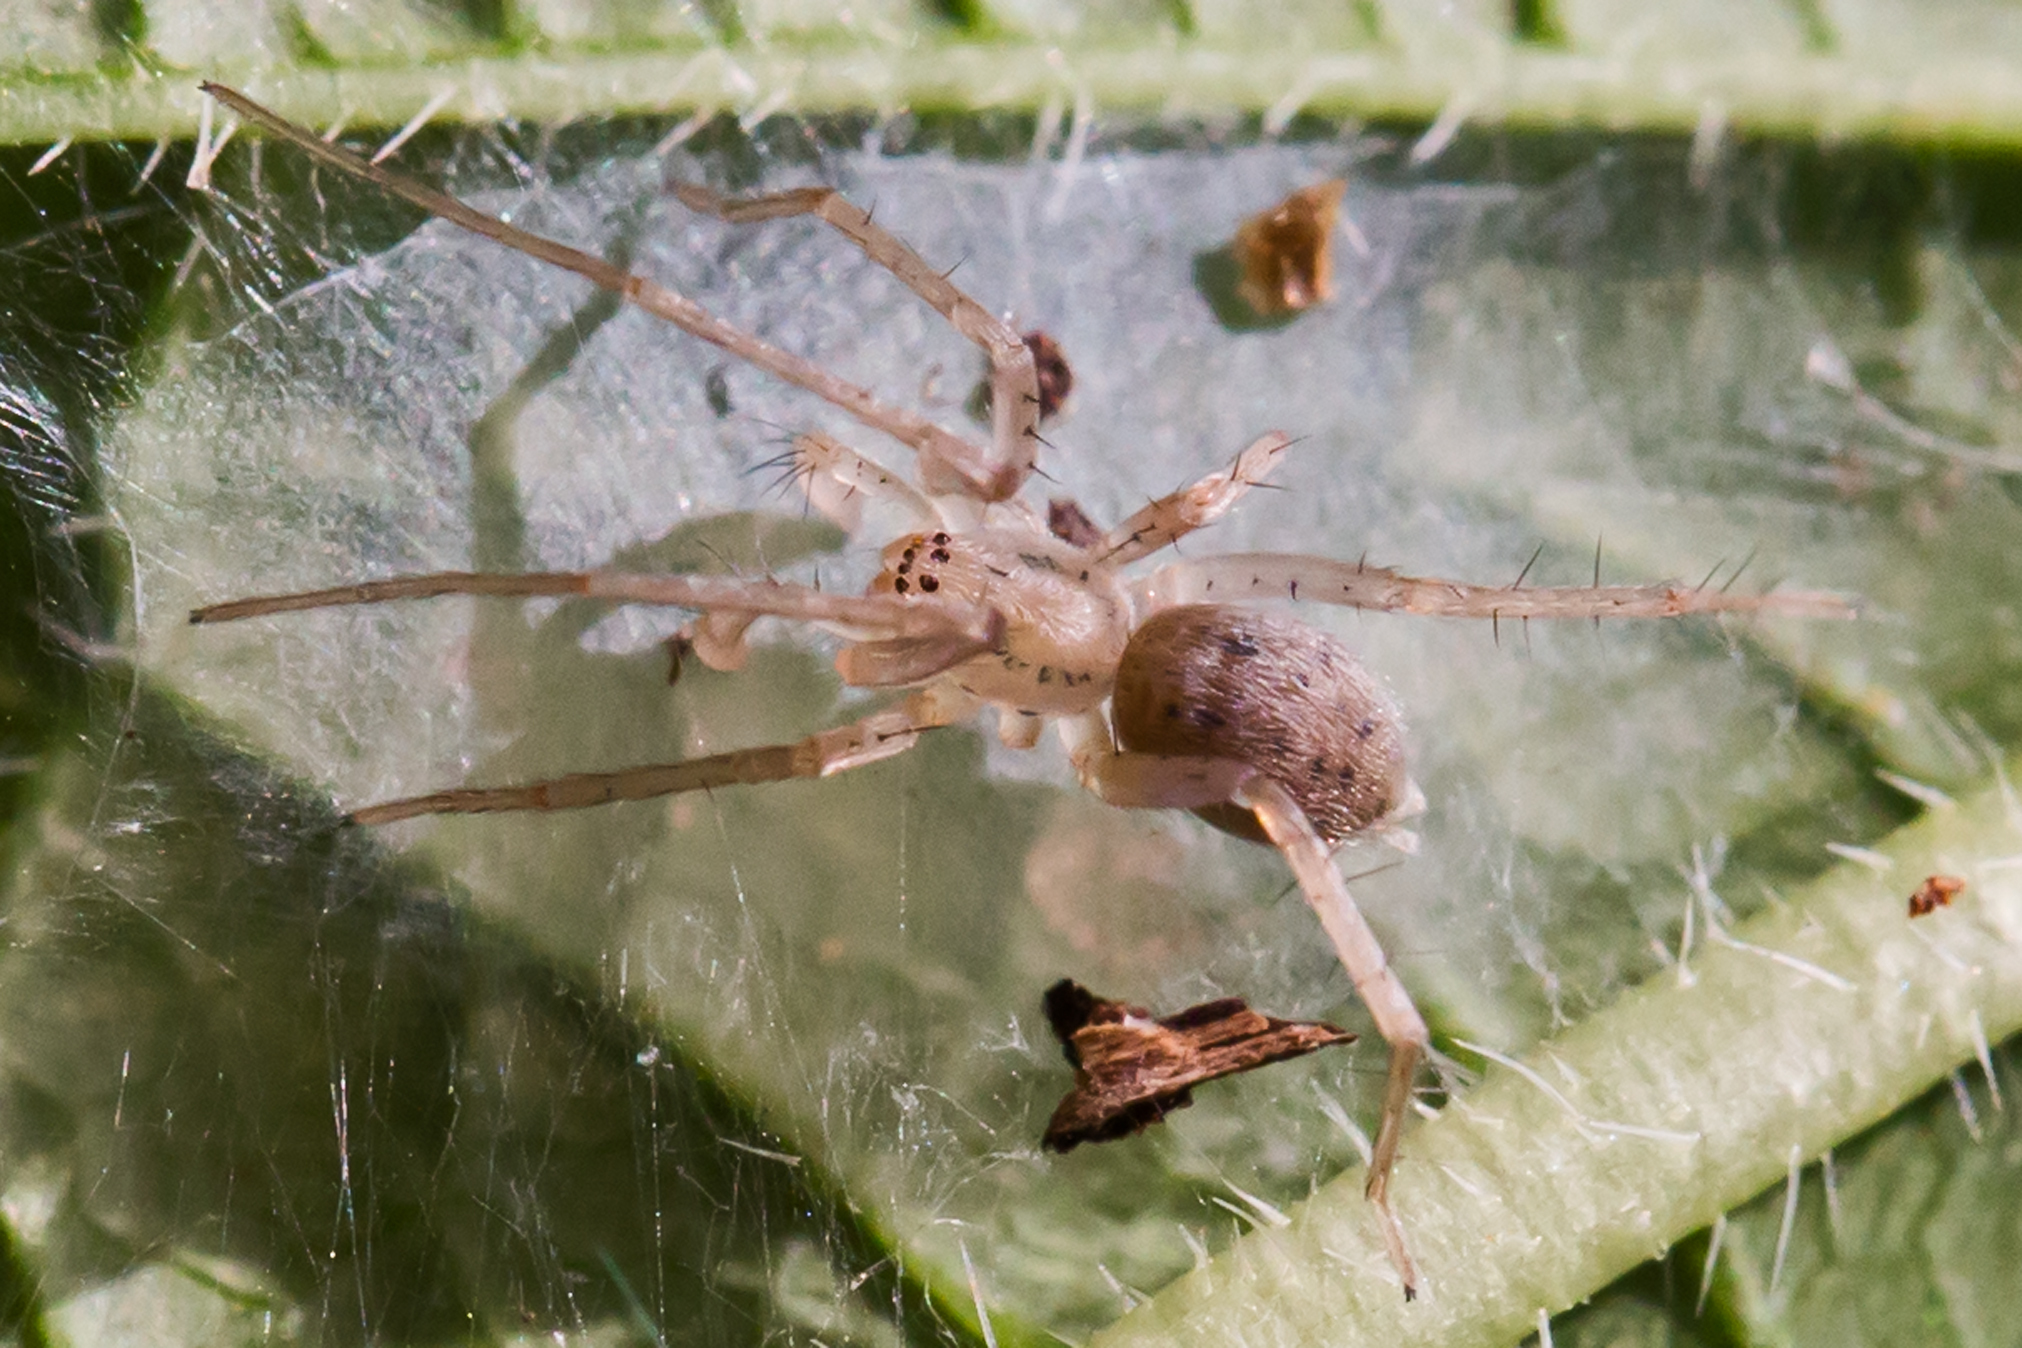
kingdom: Animalia
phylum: Arthropoda
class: Arachnida
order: Araneae
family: Anyphaenidae
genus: Wulfila
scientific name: Wulfila saltabundus
